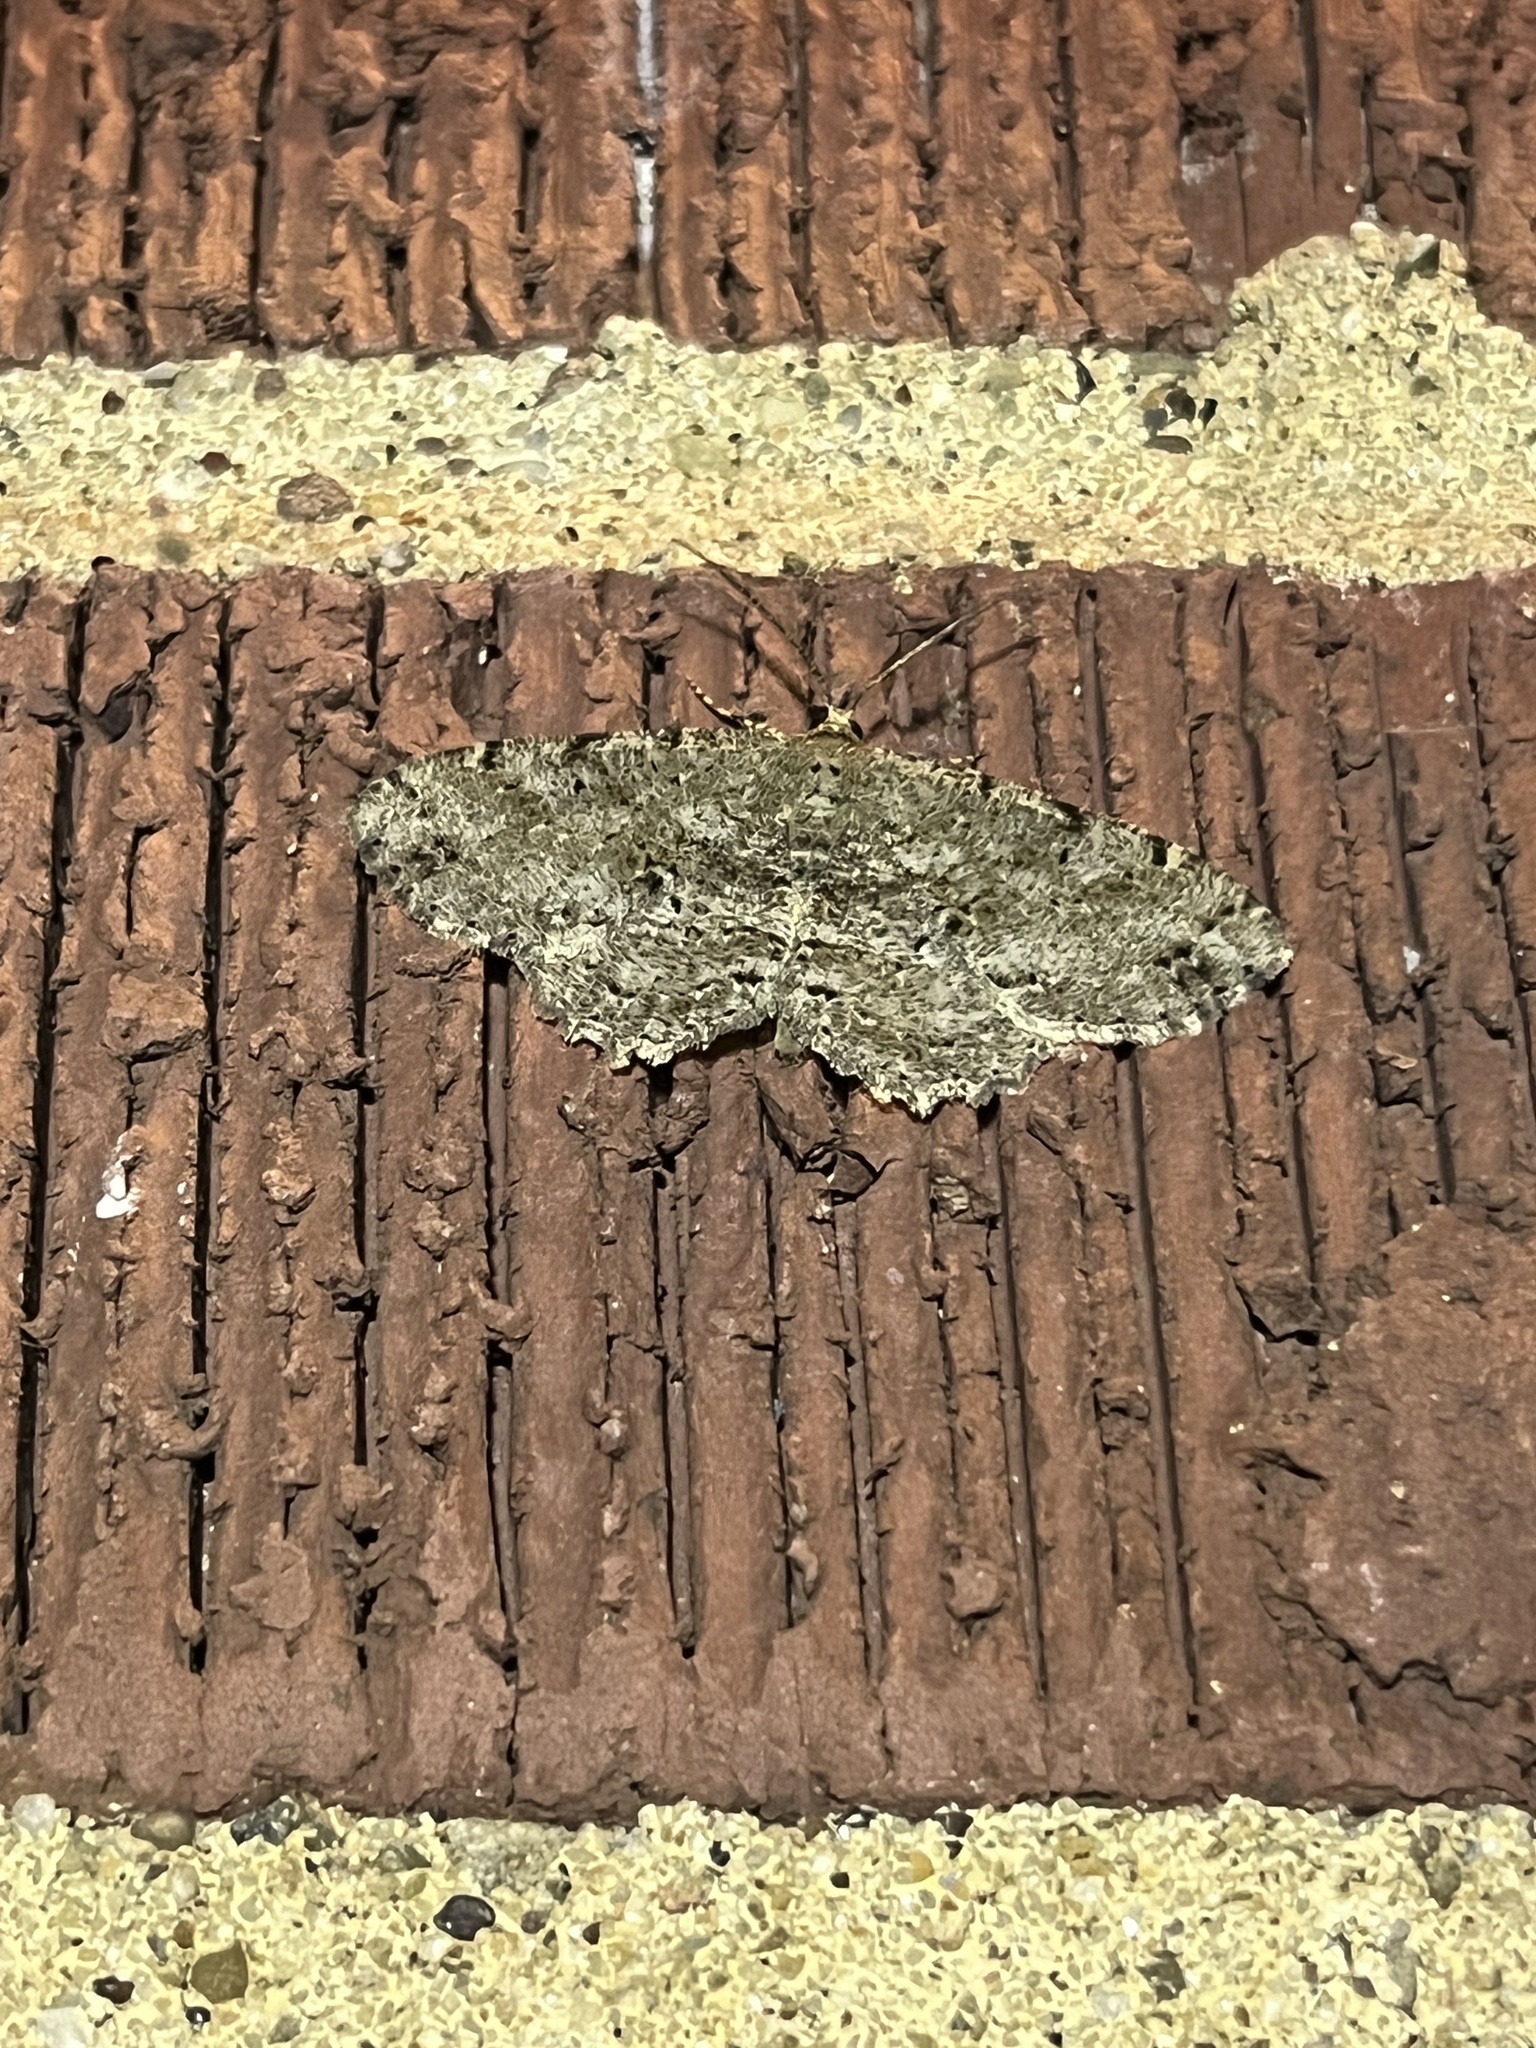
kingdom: Animalia
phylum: Arthropoda
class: Insecta
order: Lepidoptera
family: Geometridae
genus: Melanolophia
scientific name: Melanolophia canadaria
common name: Canadian melanolophia
